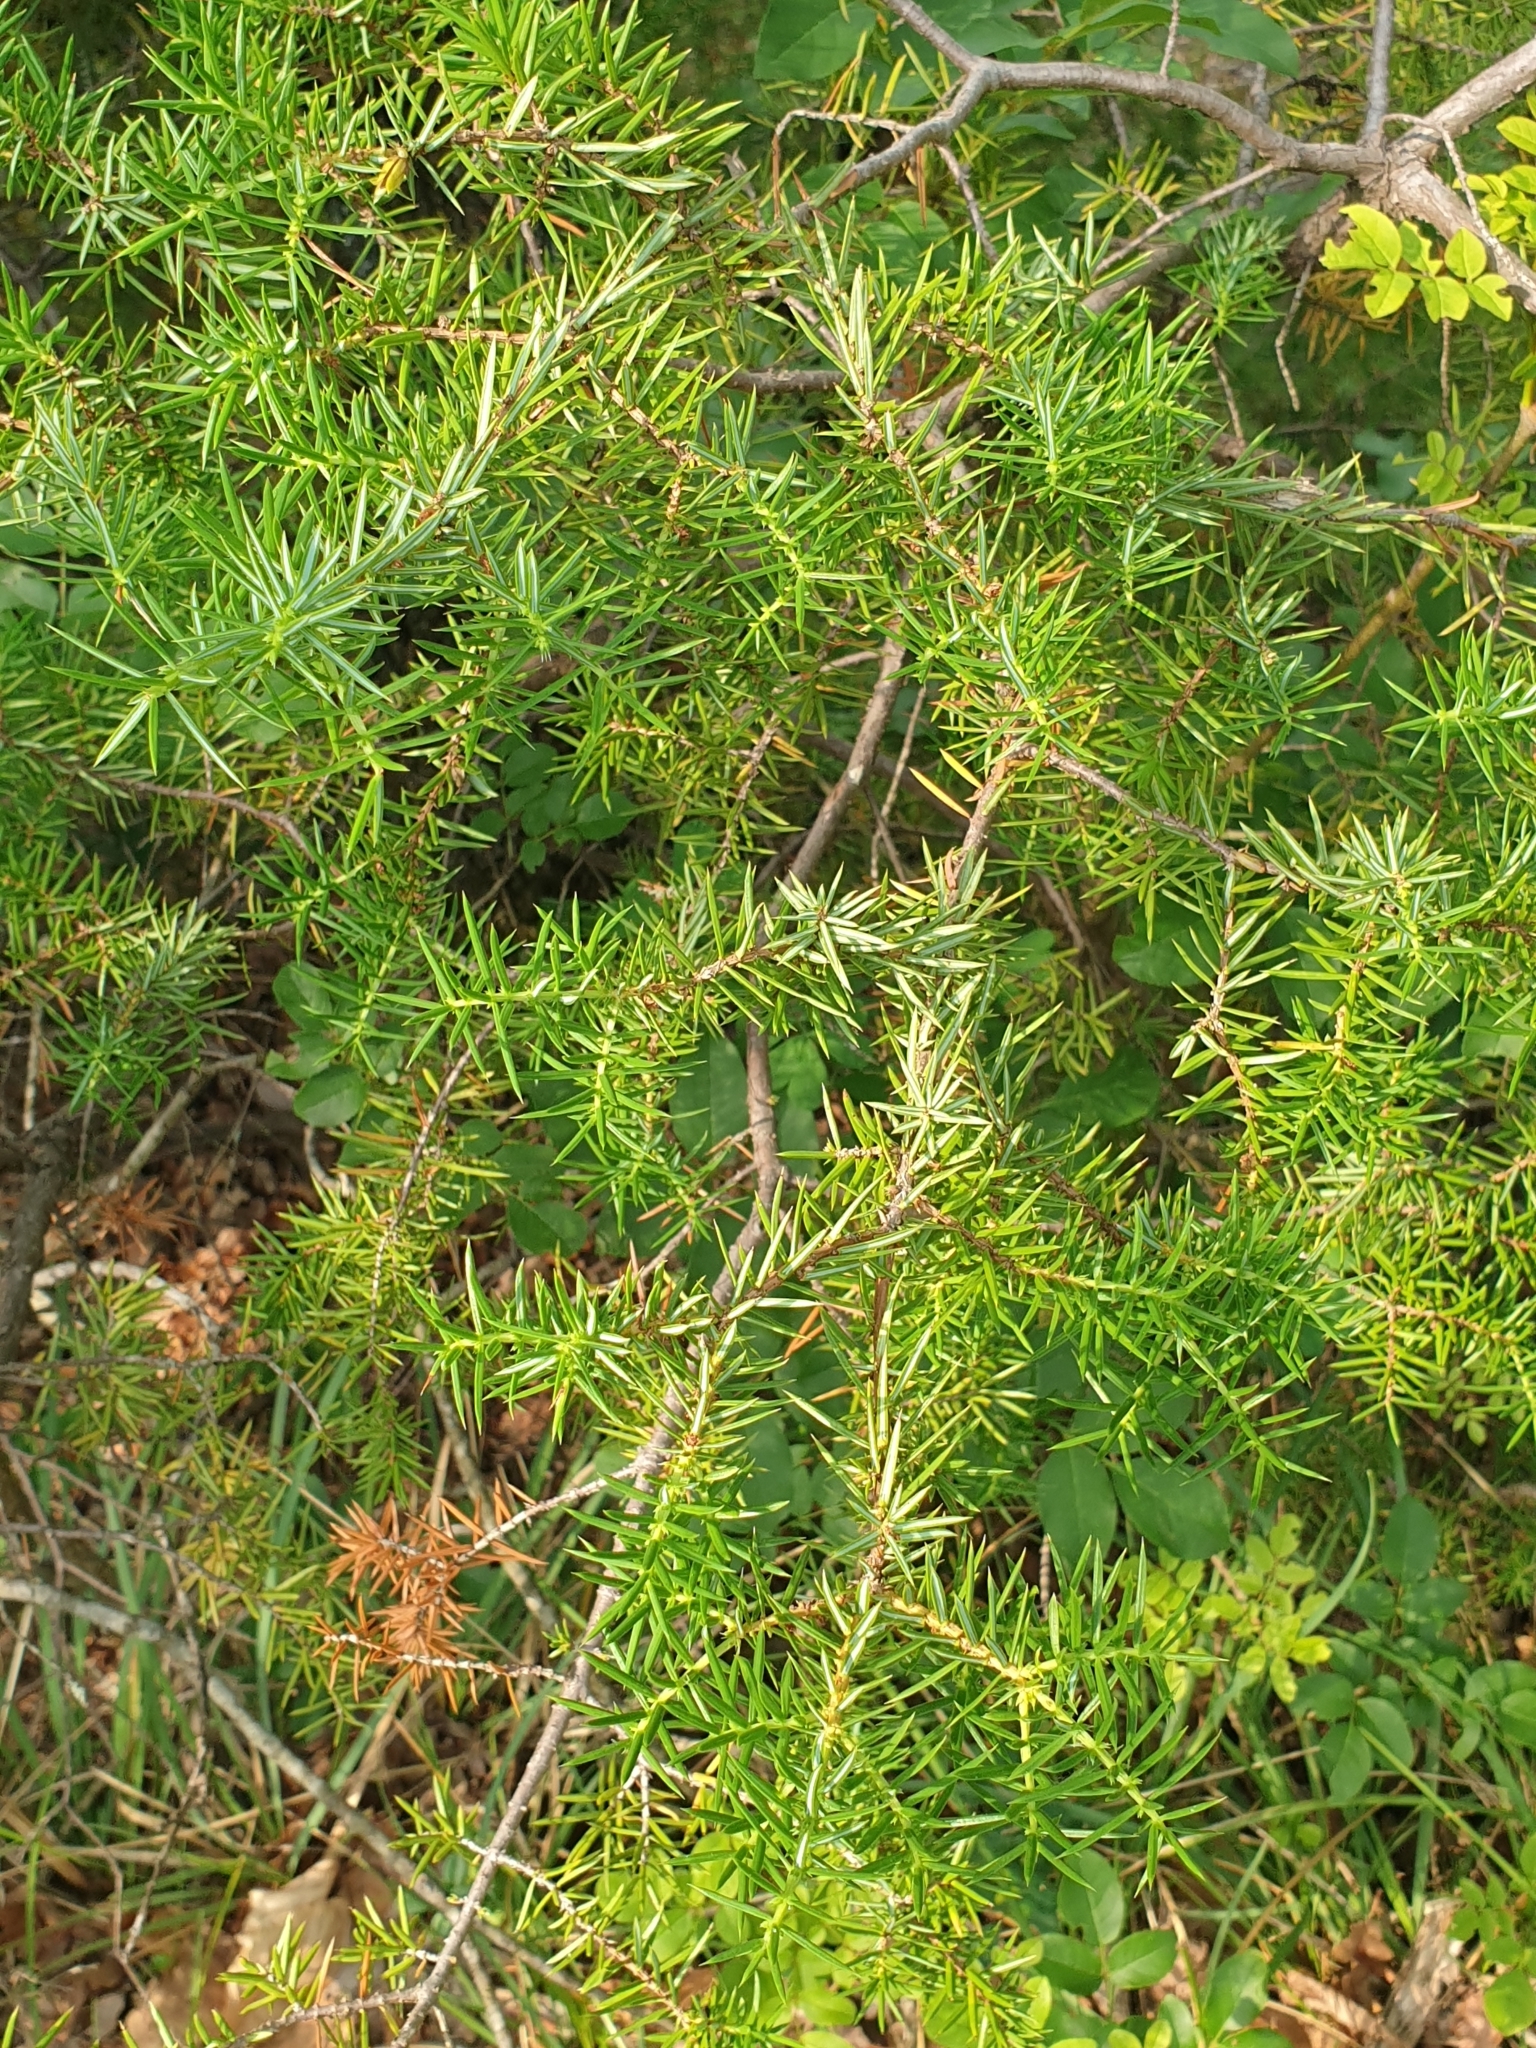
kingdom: Plantae
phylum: Tracheophyta
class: Pinopsida
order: Pinales
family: Cupressaceae
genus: Juniperus
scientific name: Juniperus communis
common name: Common juniper
